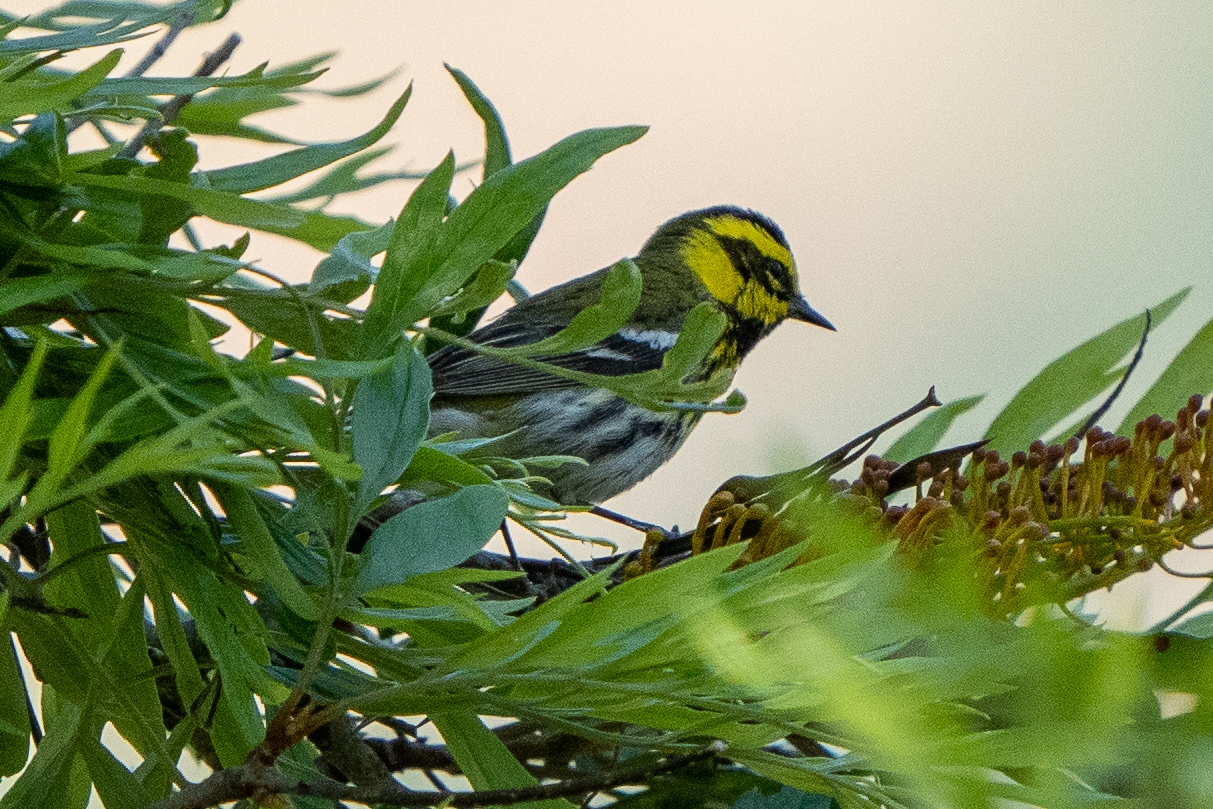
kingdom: Animalia
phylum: Chordata
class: Aves
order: Passeriformes
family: Parulidae
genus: Setophaga
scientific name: Setophaga townsendi
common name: Townsend's warbler
